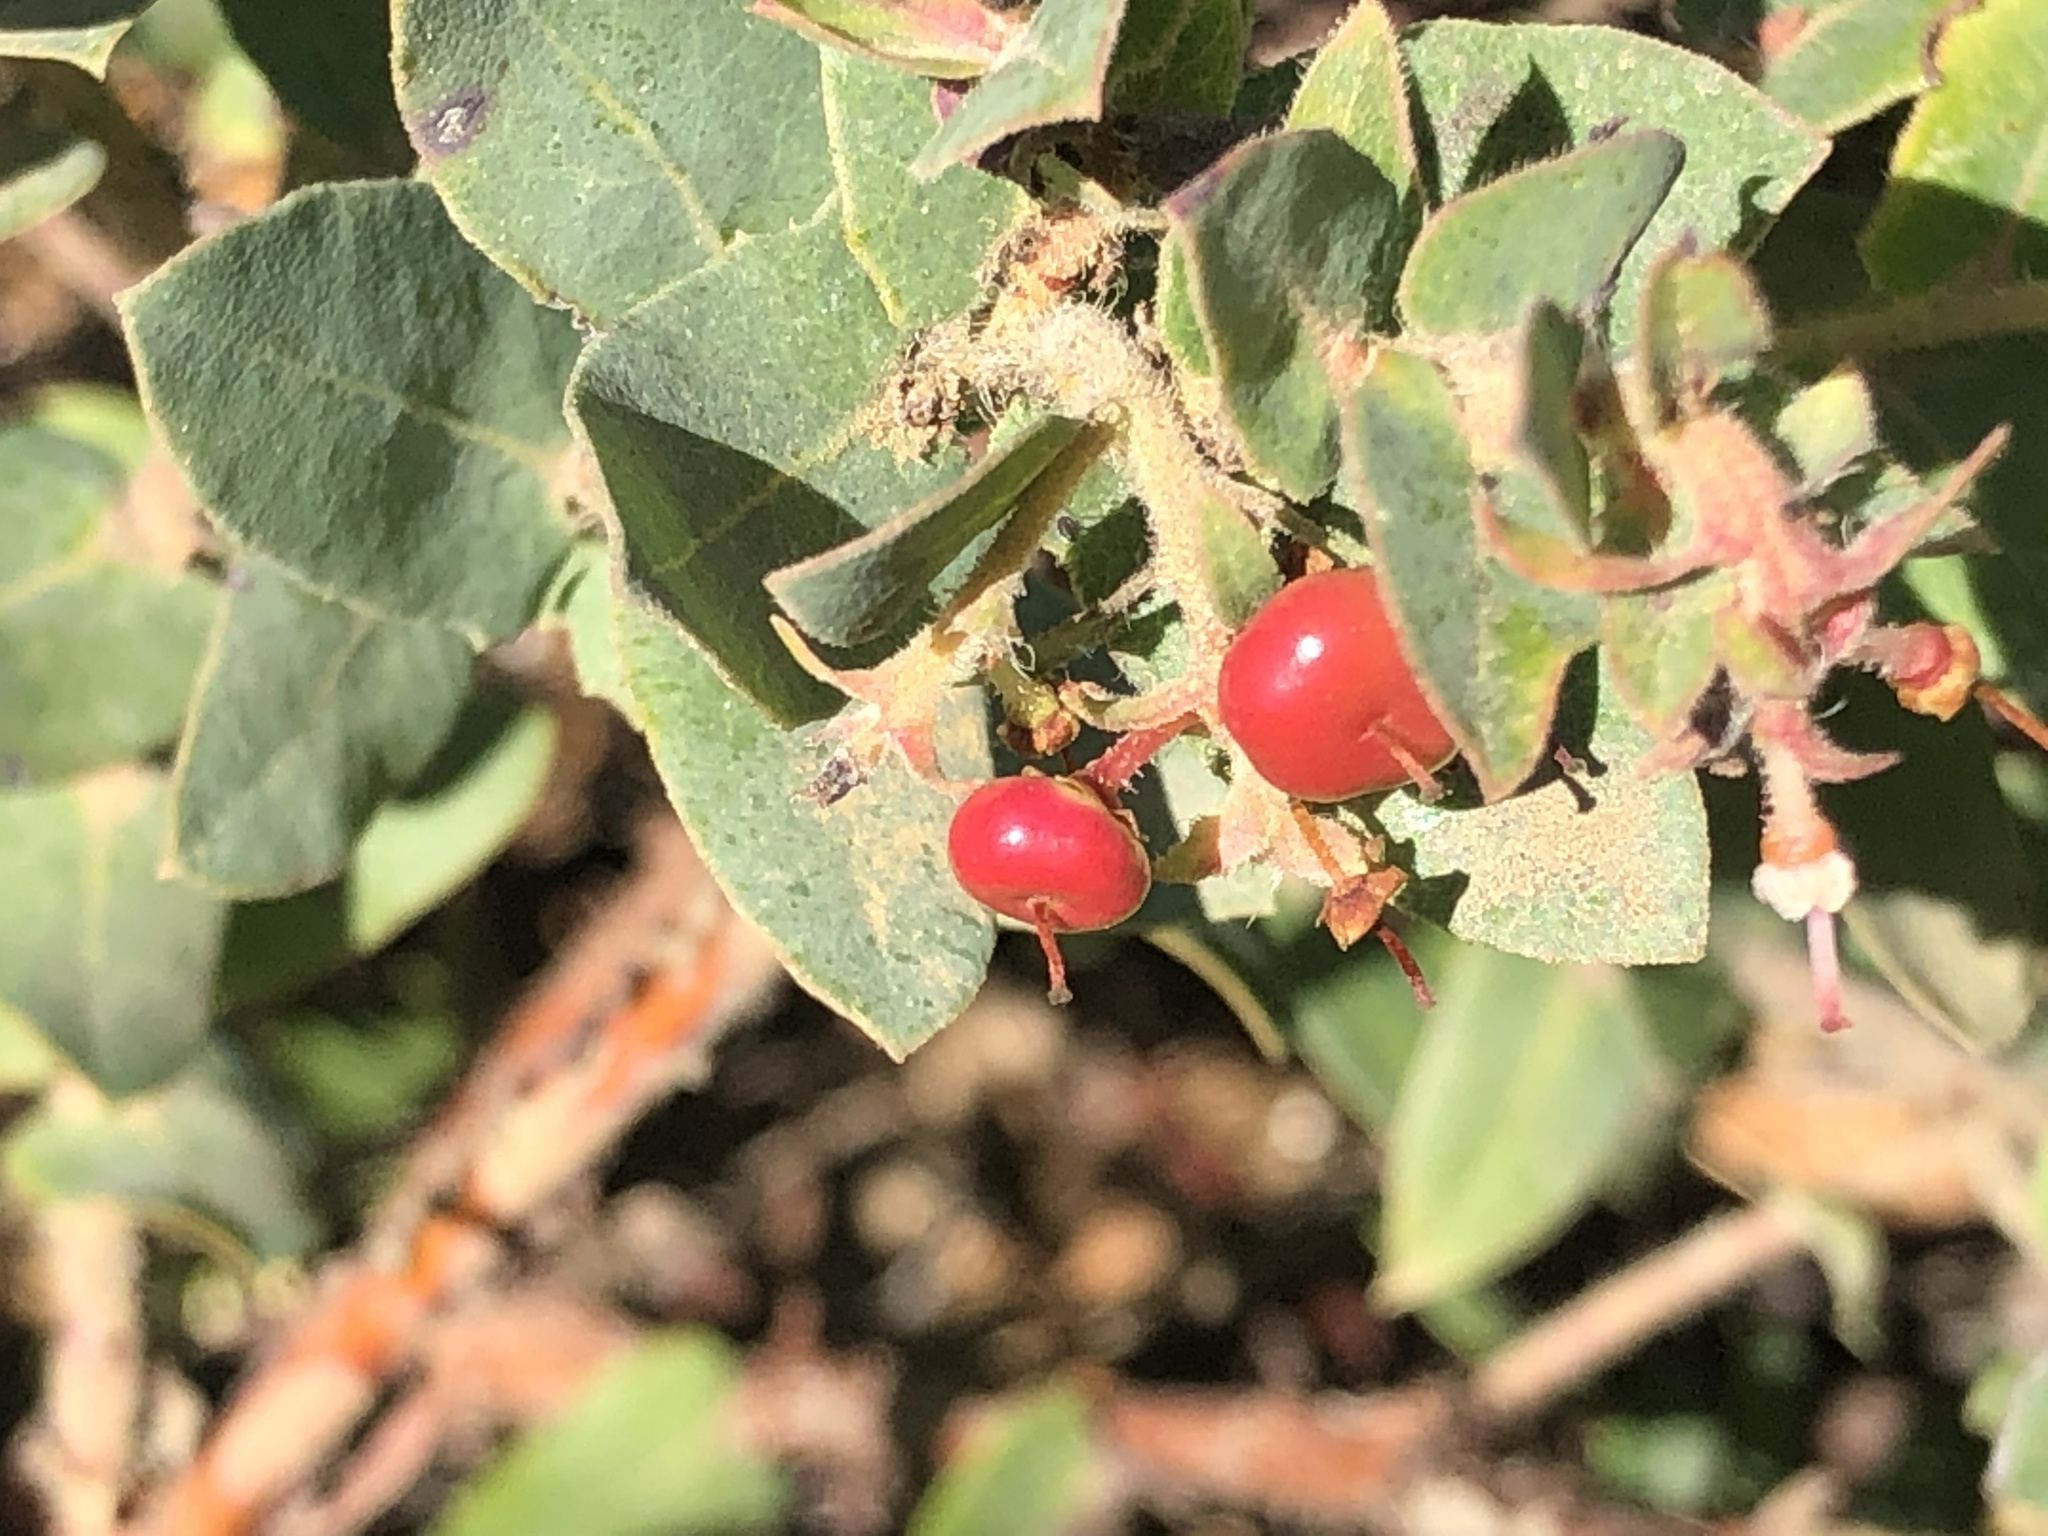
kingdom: Plantae
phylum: Tracheophyta
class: Magnoliopsida
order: Ericales
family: Ericaceae
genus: Arctostaphylos
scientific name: Arctostaphylos pajaroensis
